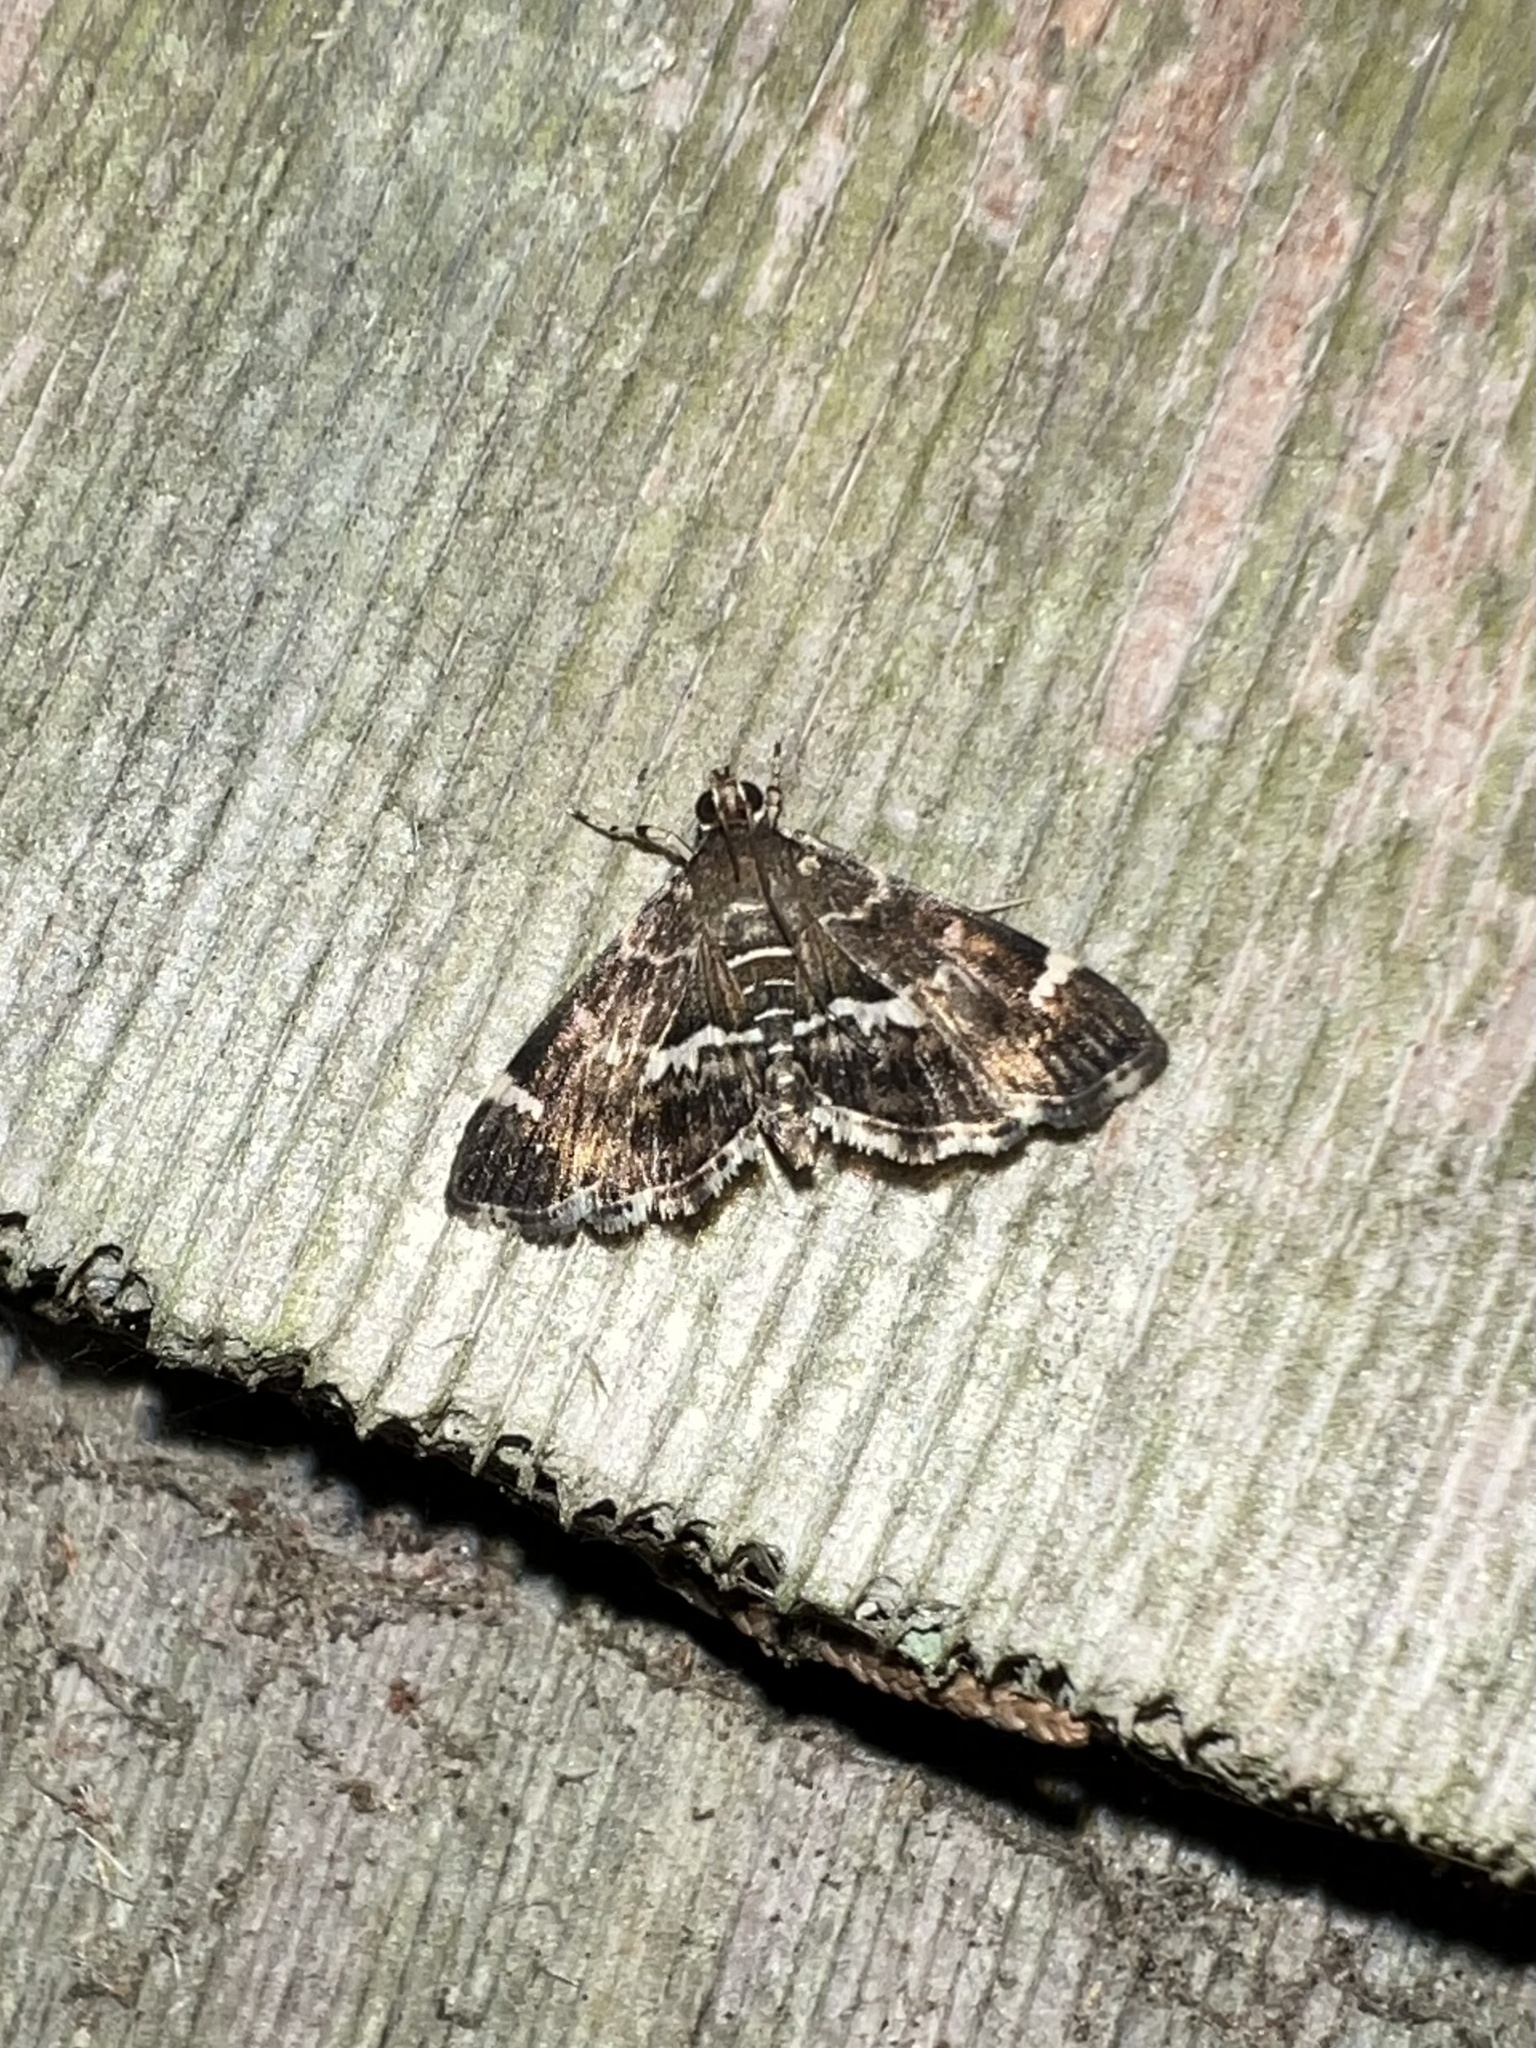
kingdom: Animalia
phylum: Arthropoda
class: Insecta
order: Lepidoptera
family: Crambidae
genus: Hymenia
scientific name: Hymenia perspectalis
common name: Spotted beet webworm
